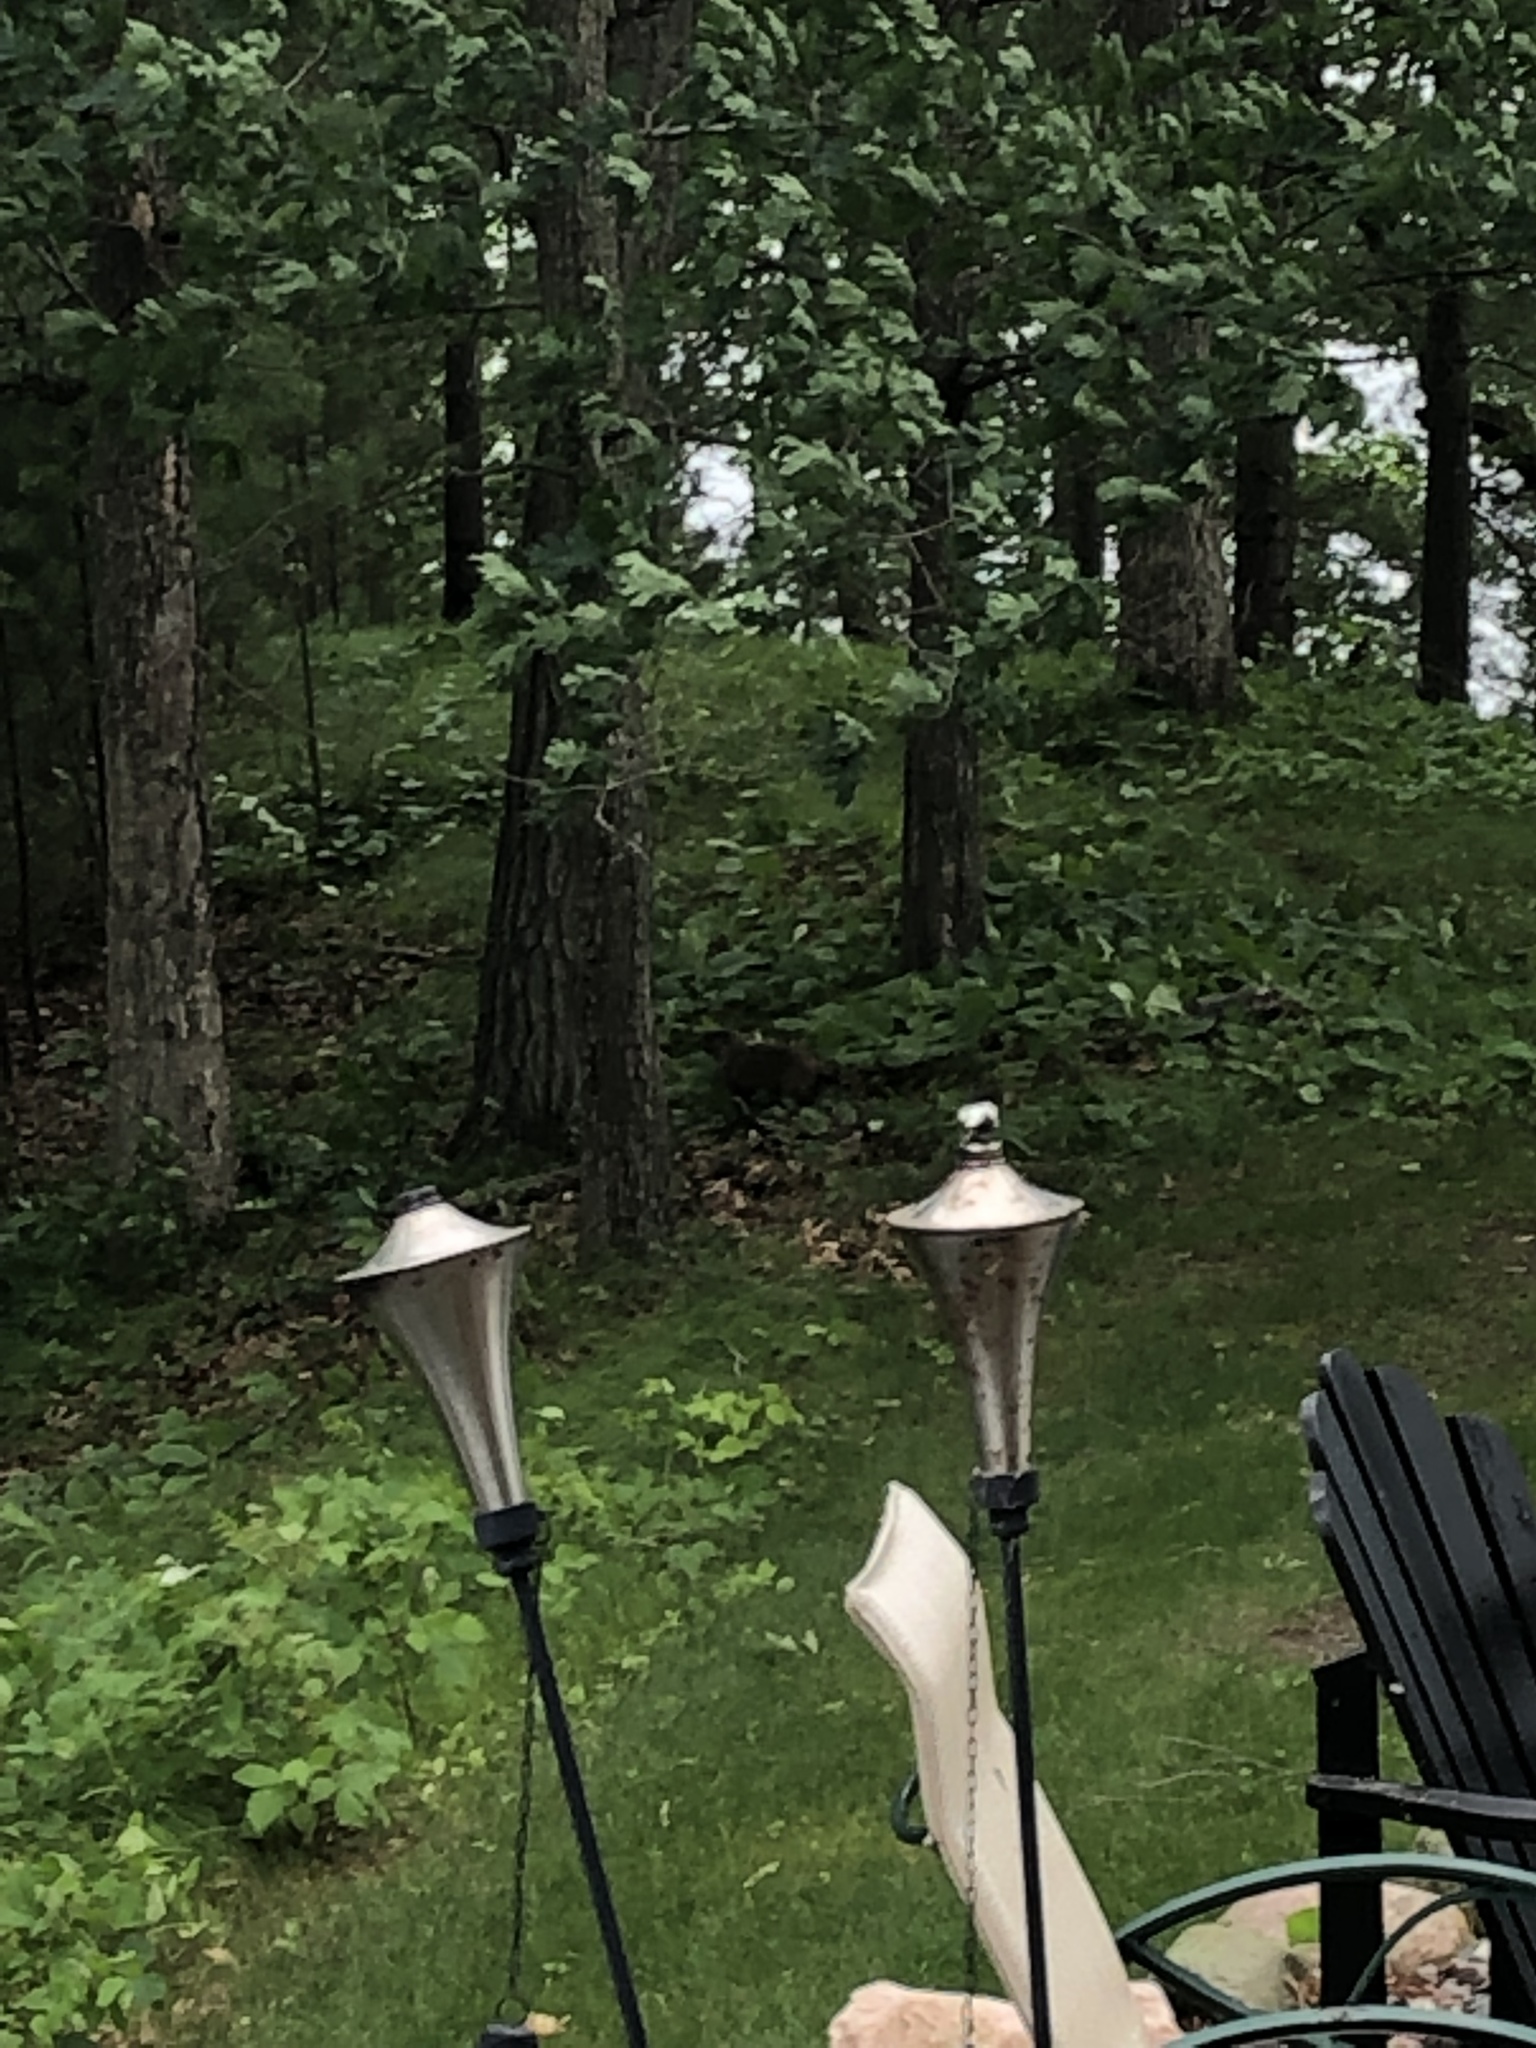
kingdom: Animalia
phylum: Chordata
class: Mammalia
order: Rodentia
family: Sciuridae
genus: Marmota
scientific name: Marmota monax
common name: Groundhog
